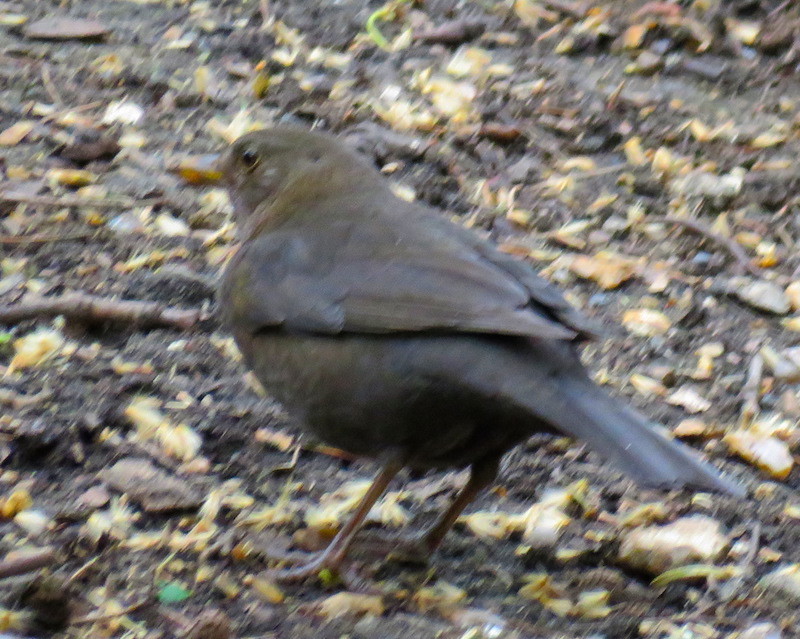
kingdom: Animalia
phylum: Chordata
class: Aves
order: Passeriformes
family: Turdidae
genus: Turdus
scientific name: Turdus merula
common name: Common blackbird
